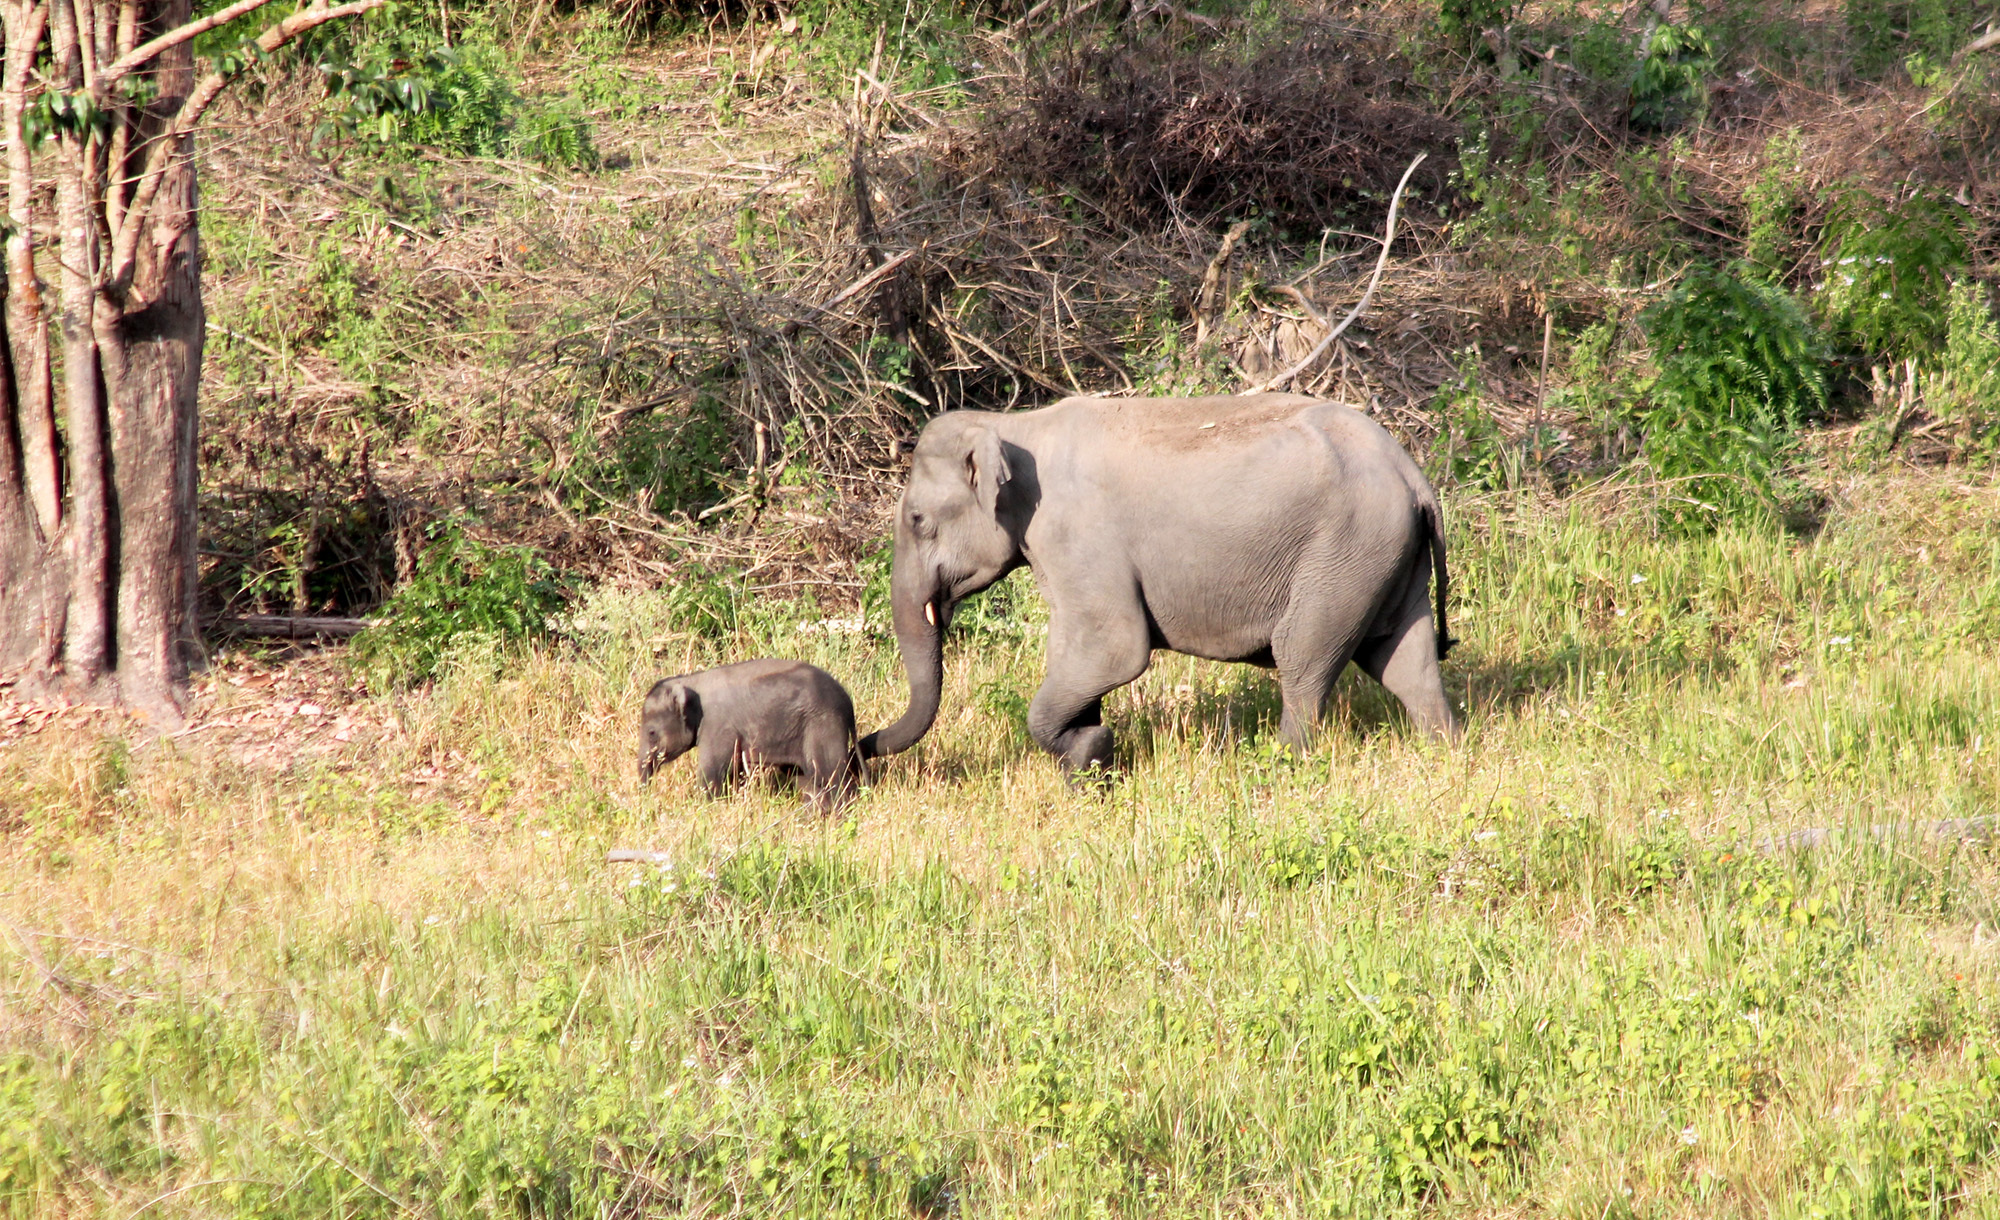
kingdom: Animalia
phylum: Chordata
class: Mammalia
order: Proboscidea
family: Elephantidae
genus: Elephas
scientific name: Elephas maximus
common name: Asian elephant
